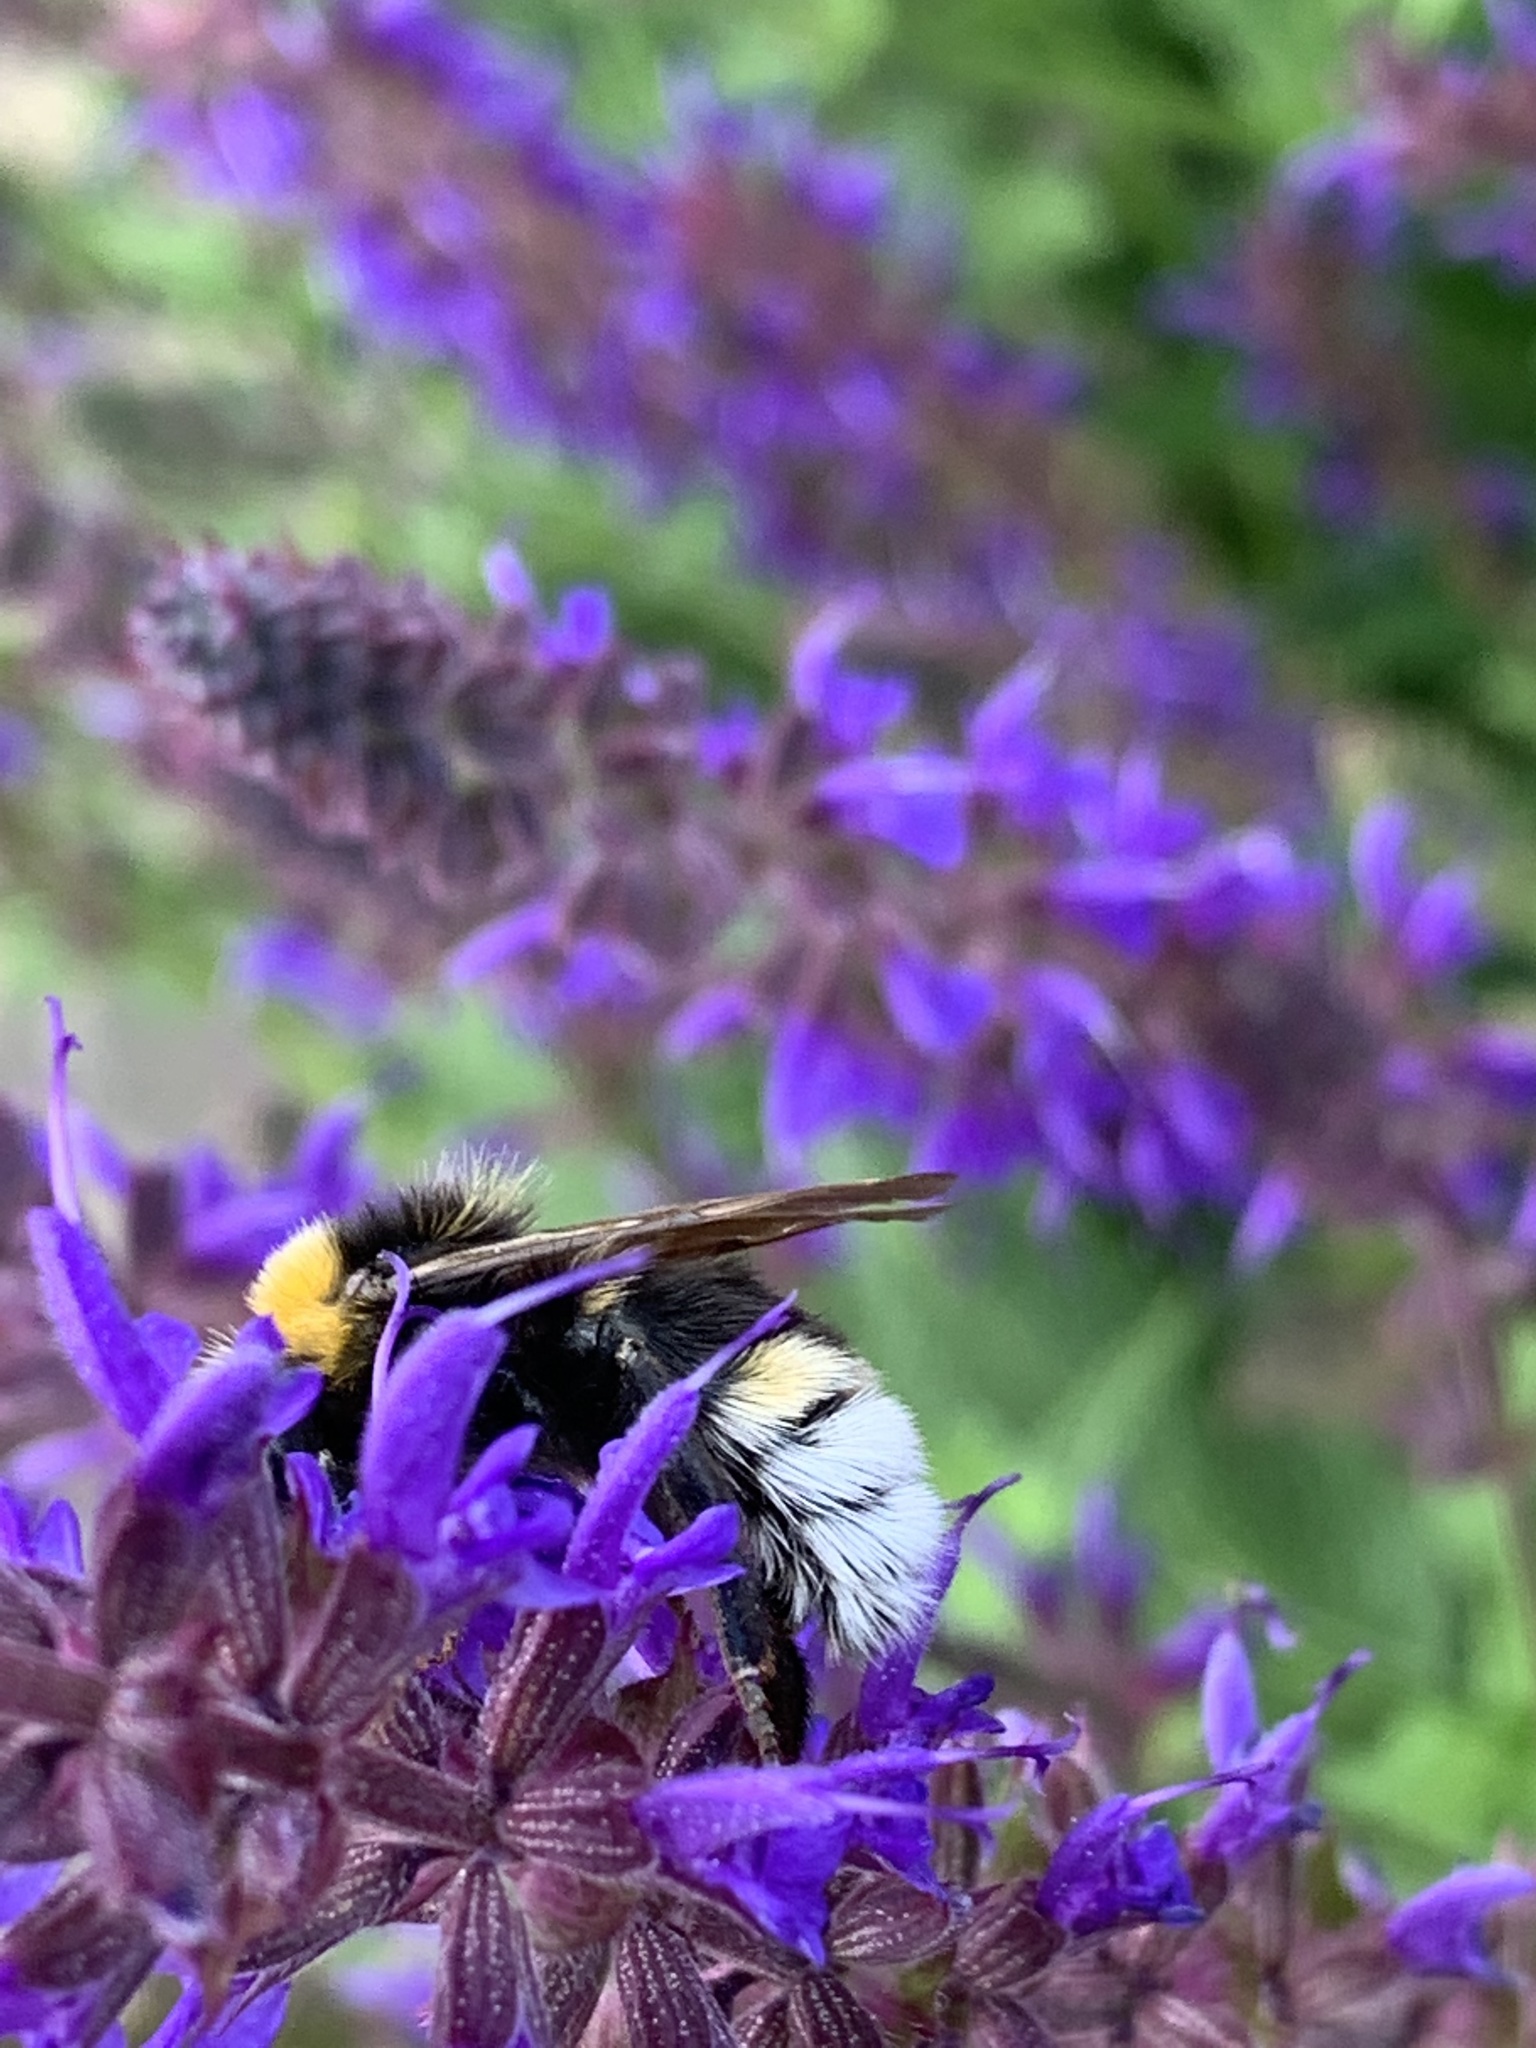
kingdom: Animalia
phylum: Arthropoda
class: Insecta
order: Hymenoptera
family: Apidae
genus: Bombus
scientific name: Bombus vestalis
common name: Vestal cuckoo bee
